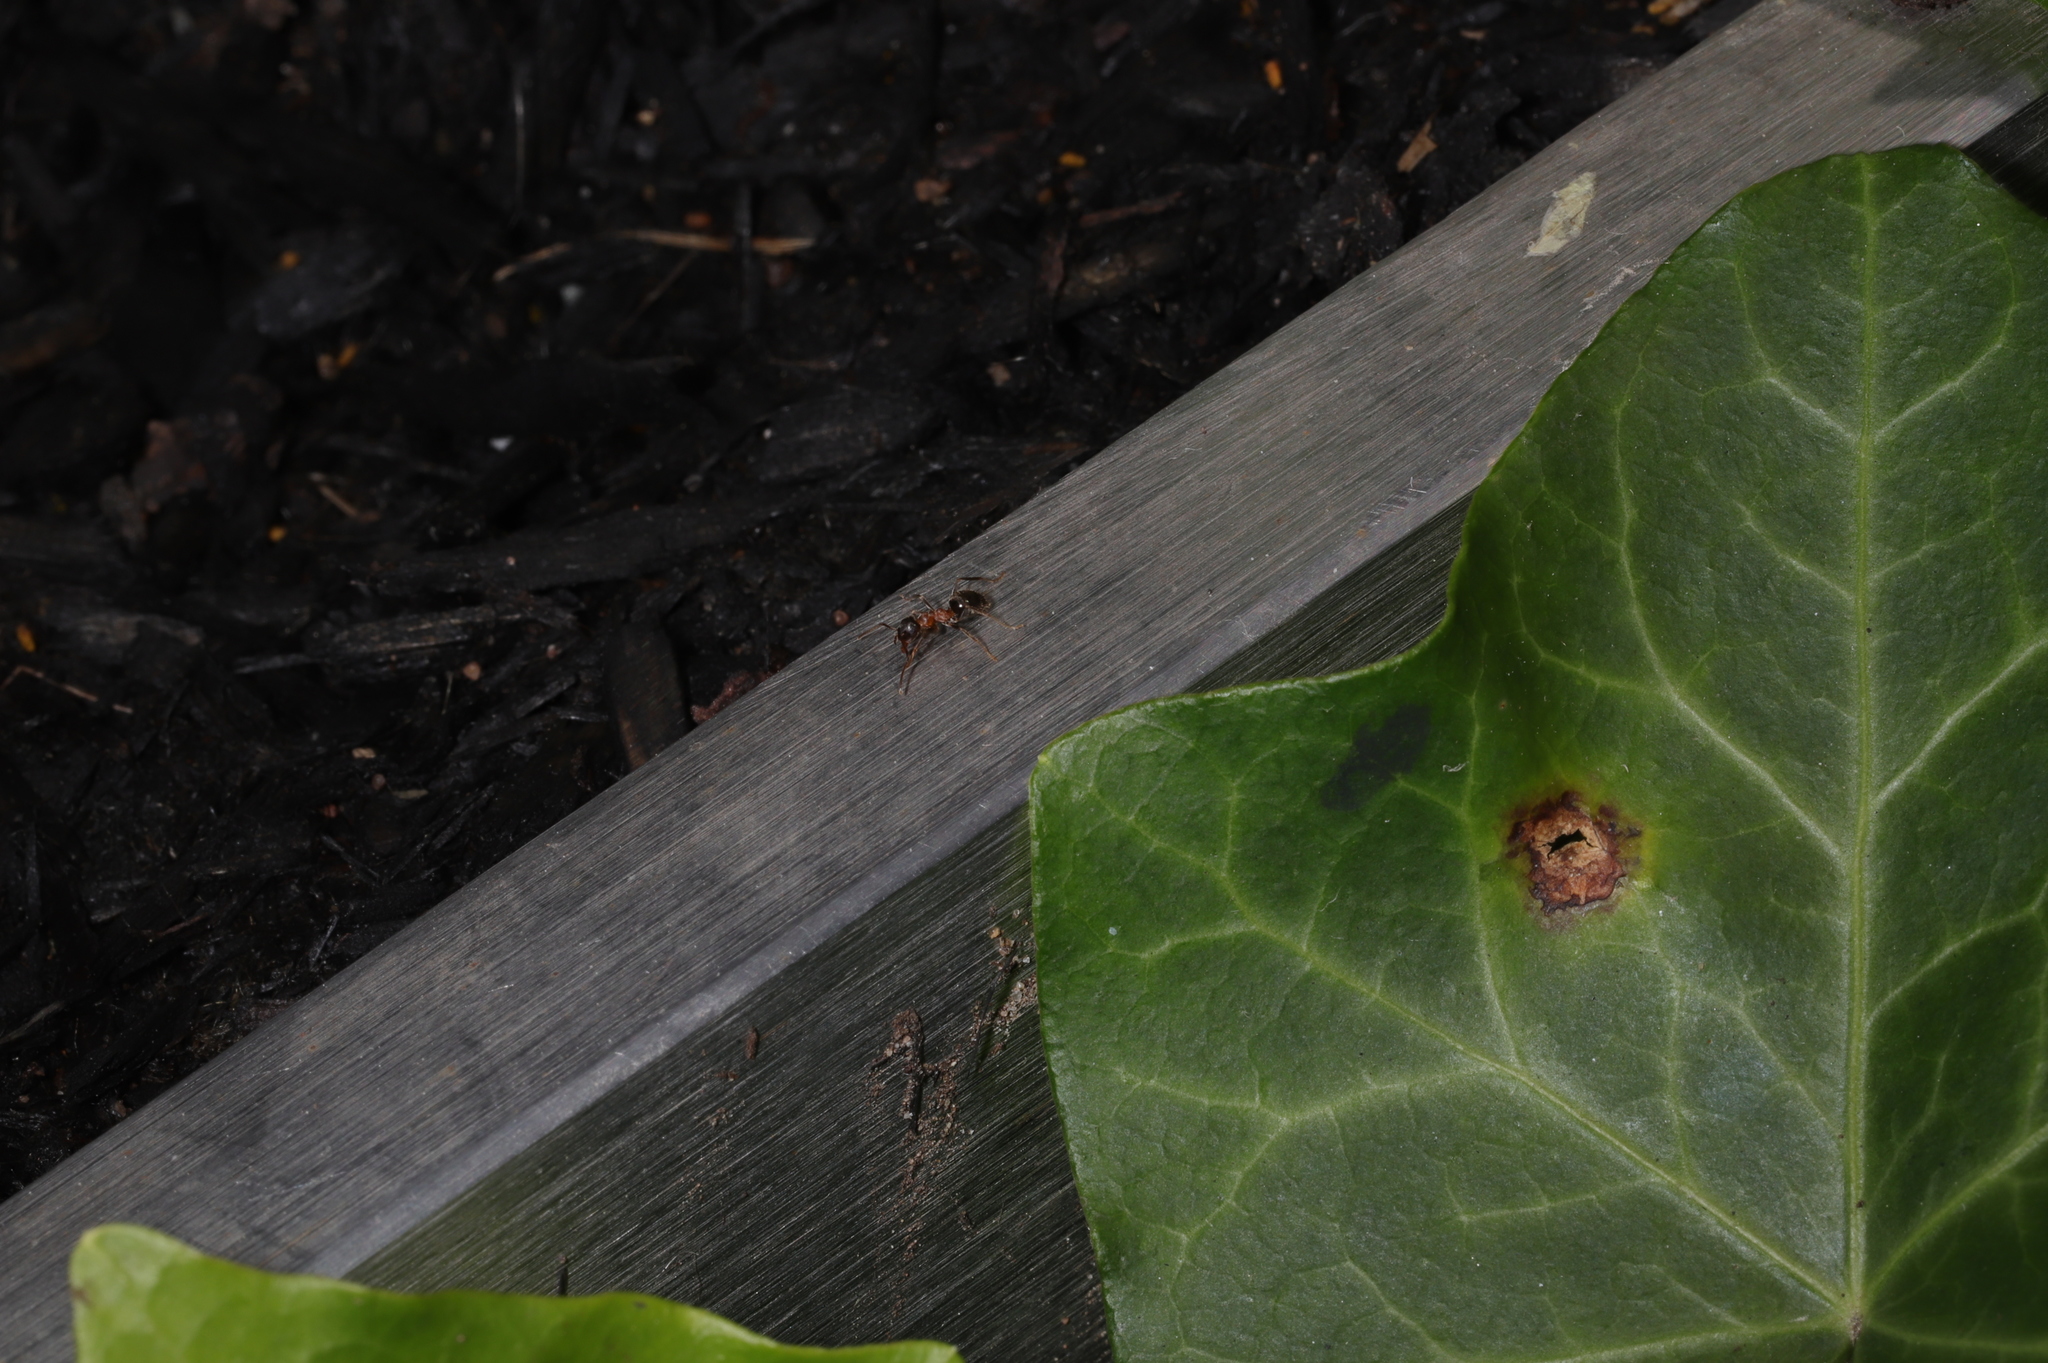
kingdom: Animalia
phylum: Arthropoda
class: Insecta
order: Hymenoptera
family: Formicidae
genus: Lasius
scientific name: Lasius emarginatus
